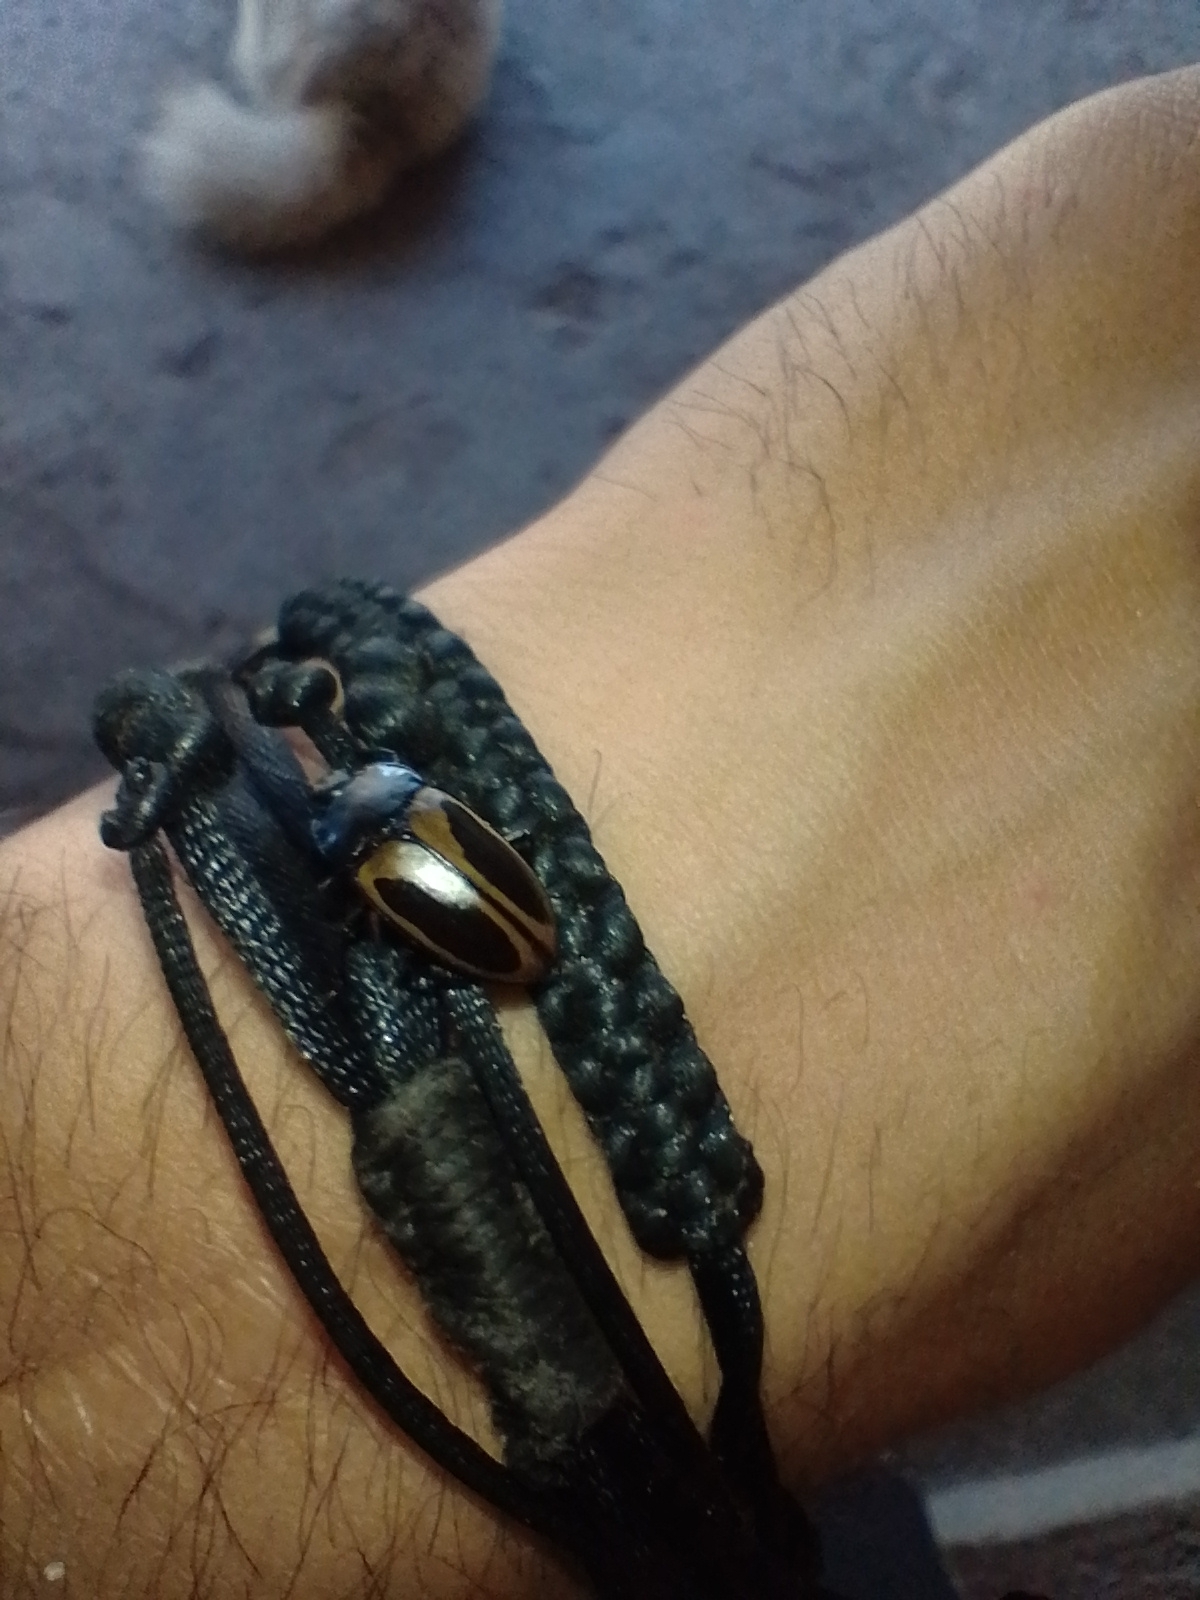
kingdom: Animalia
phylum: Arthropoda
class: Insecta
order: Coleoptera
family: Erotylidae
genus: Iphiclus
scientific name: Iphiclus
